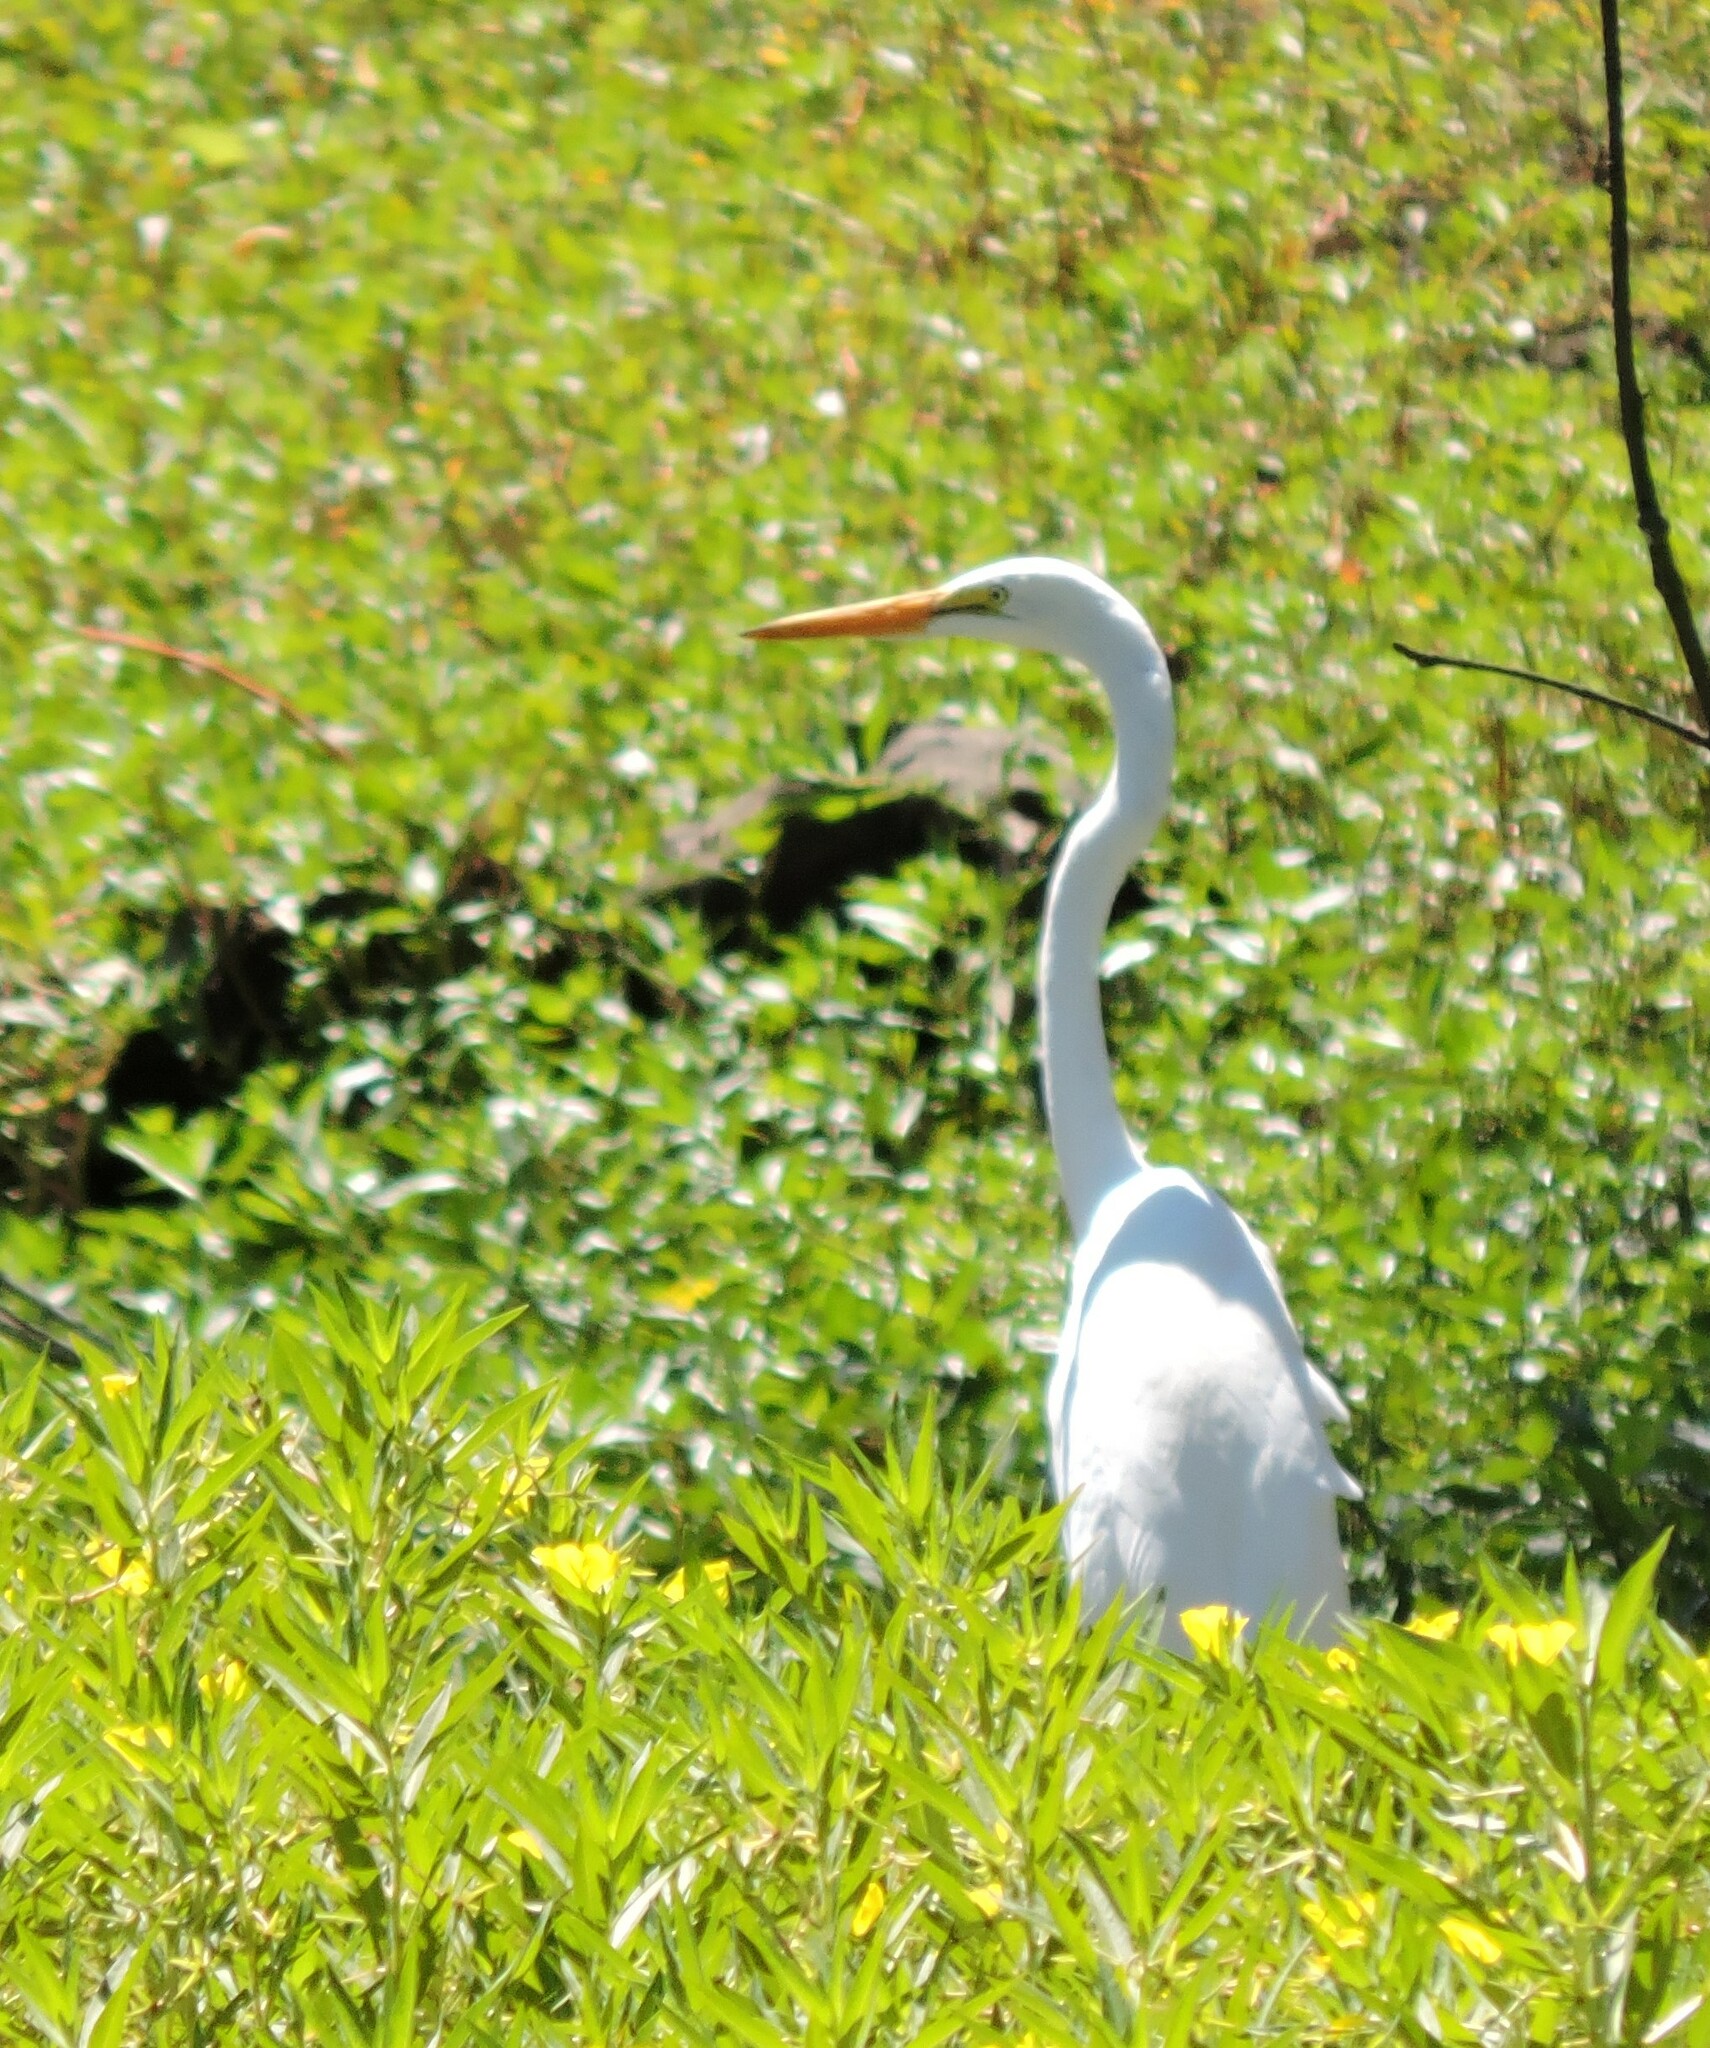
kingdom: Animalia
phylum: Chordata
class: Aves
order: Pelecaniformes
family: Ardeidae
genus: Ardea
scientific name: Ardea alba
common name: Great egret
